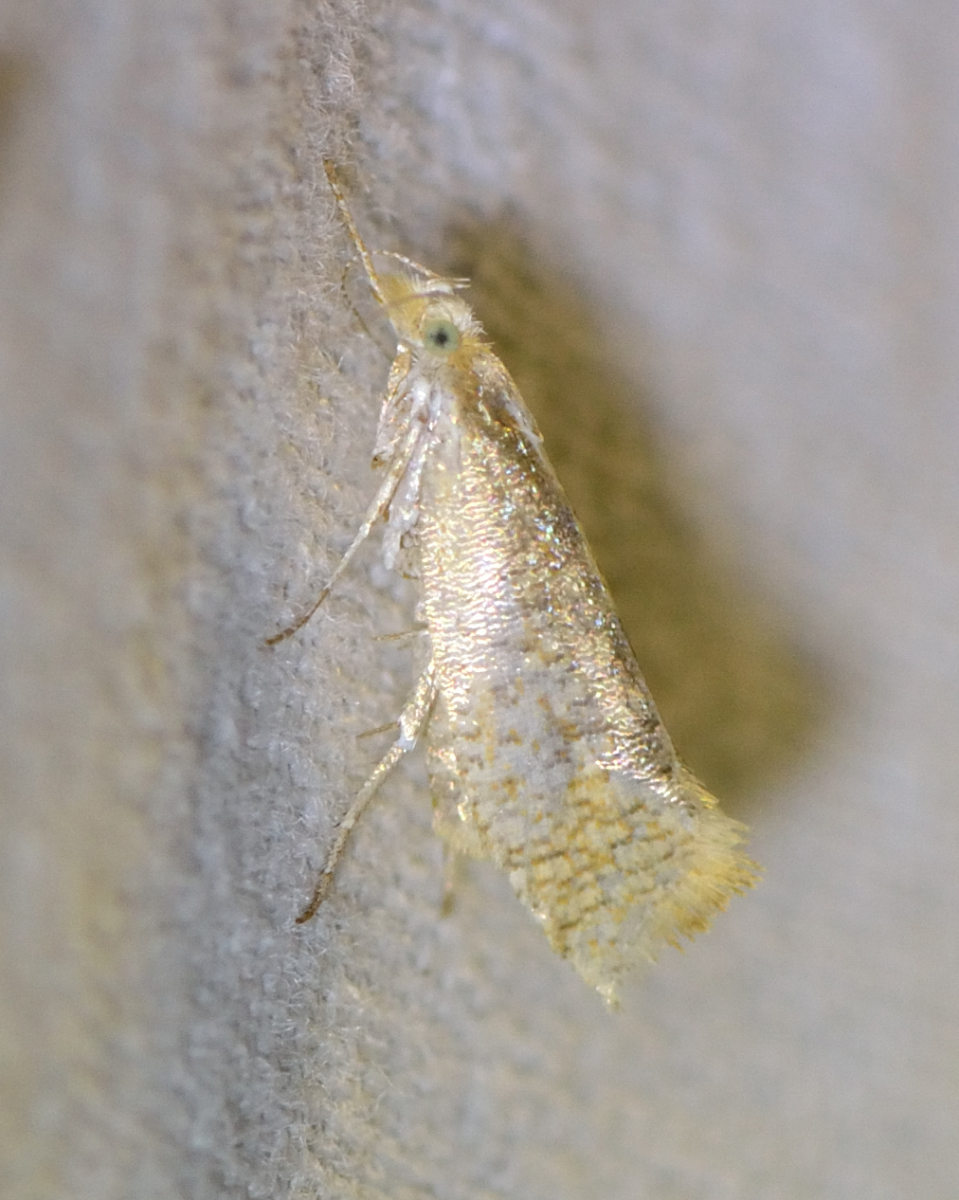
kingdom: Animalia
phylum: Arthropoda
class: Insecta
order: Lepidoptera
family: Ypsolophidae
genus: Ypsolopha
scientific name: Ypsolopha lucella
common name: Plain smudge
